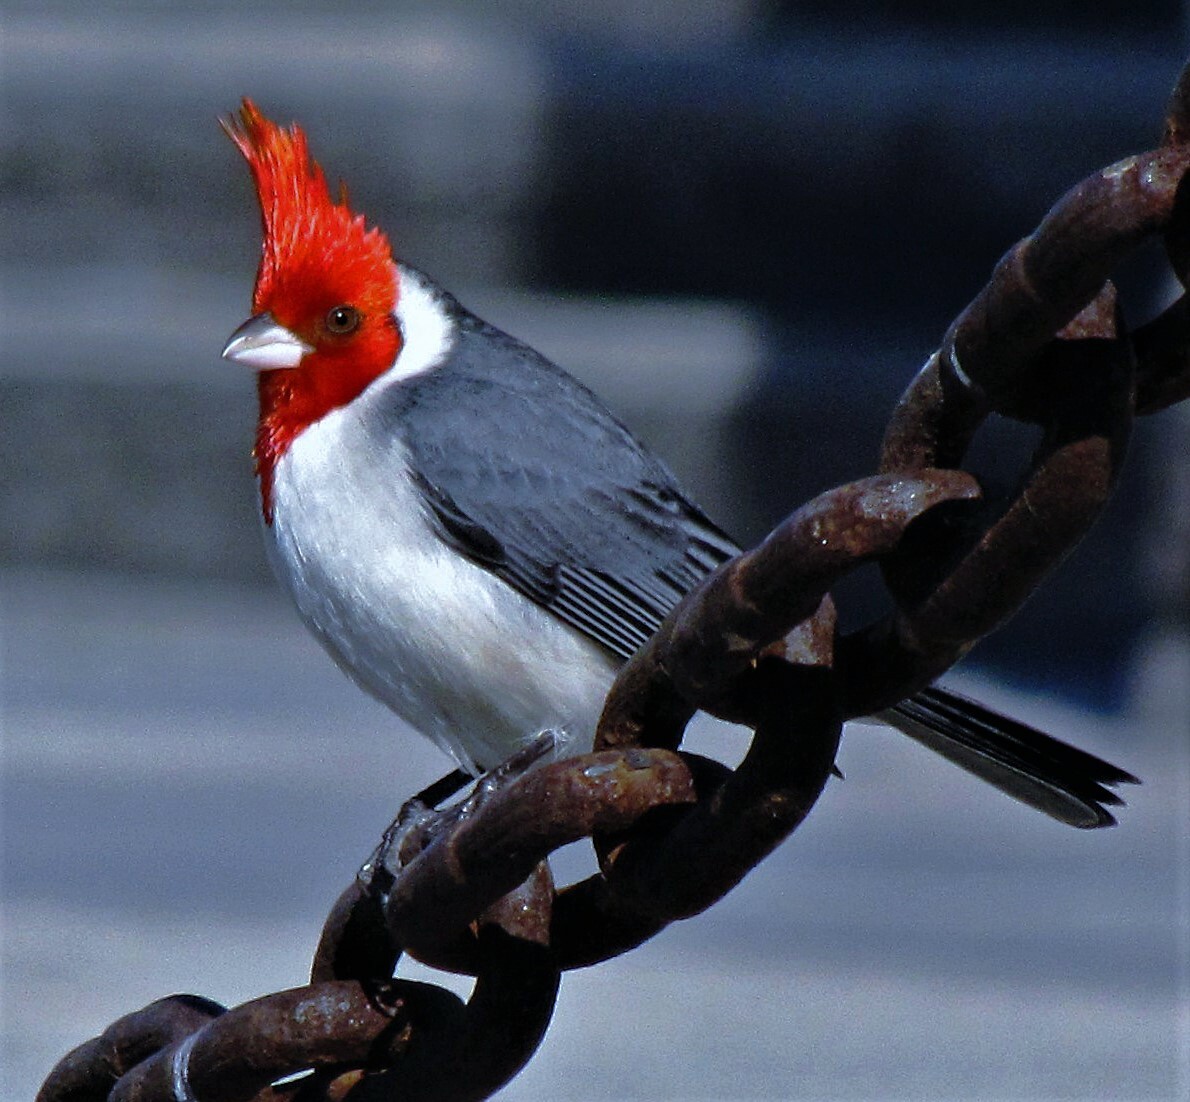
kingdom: Animalia
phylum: Chordata
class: Aves
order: Passeriformes
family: Thraupidae
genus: Paroaria
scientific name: Paroaria coronata
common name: Red-crested cardinal
